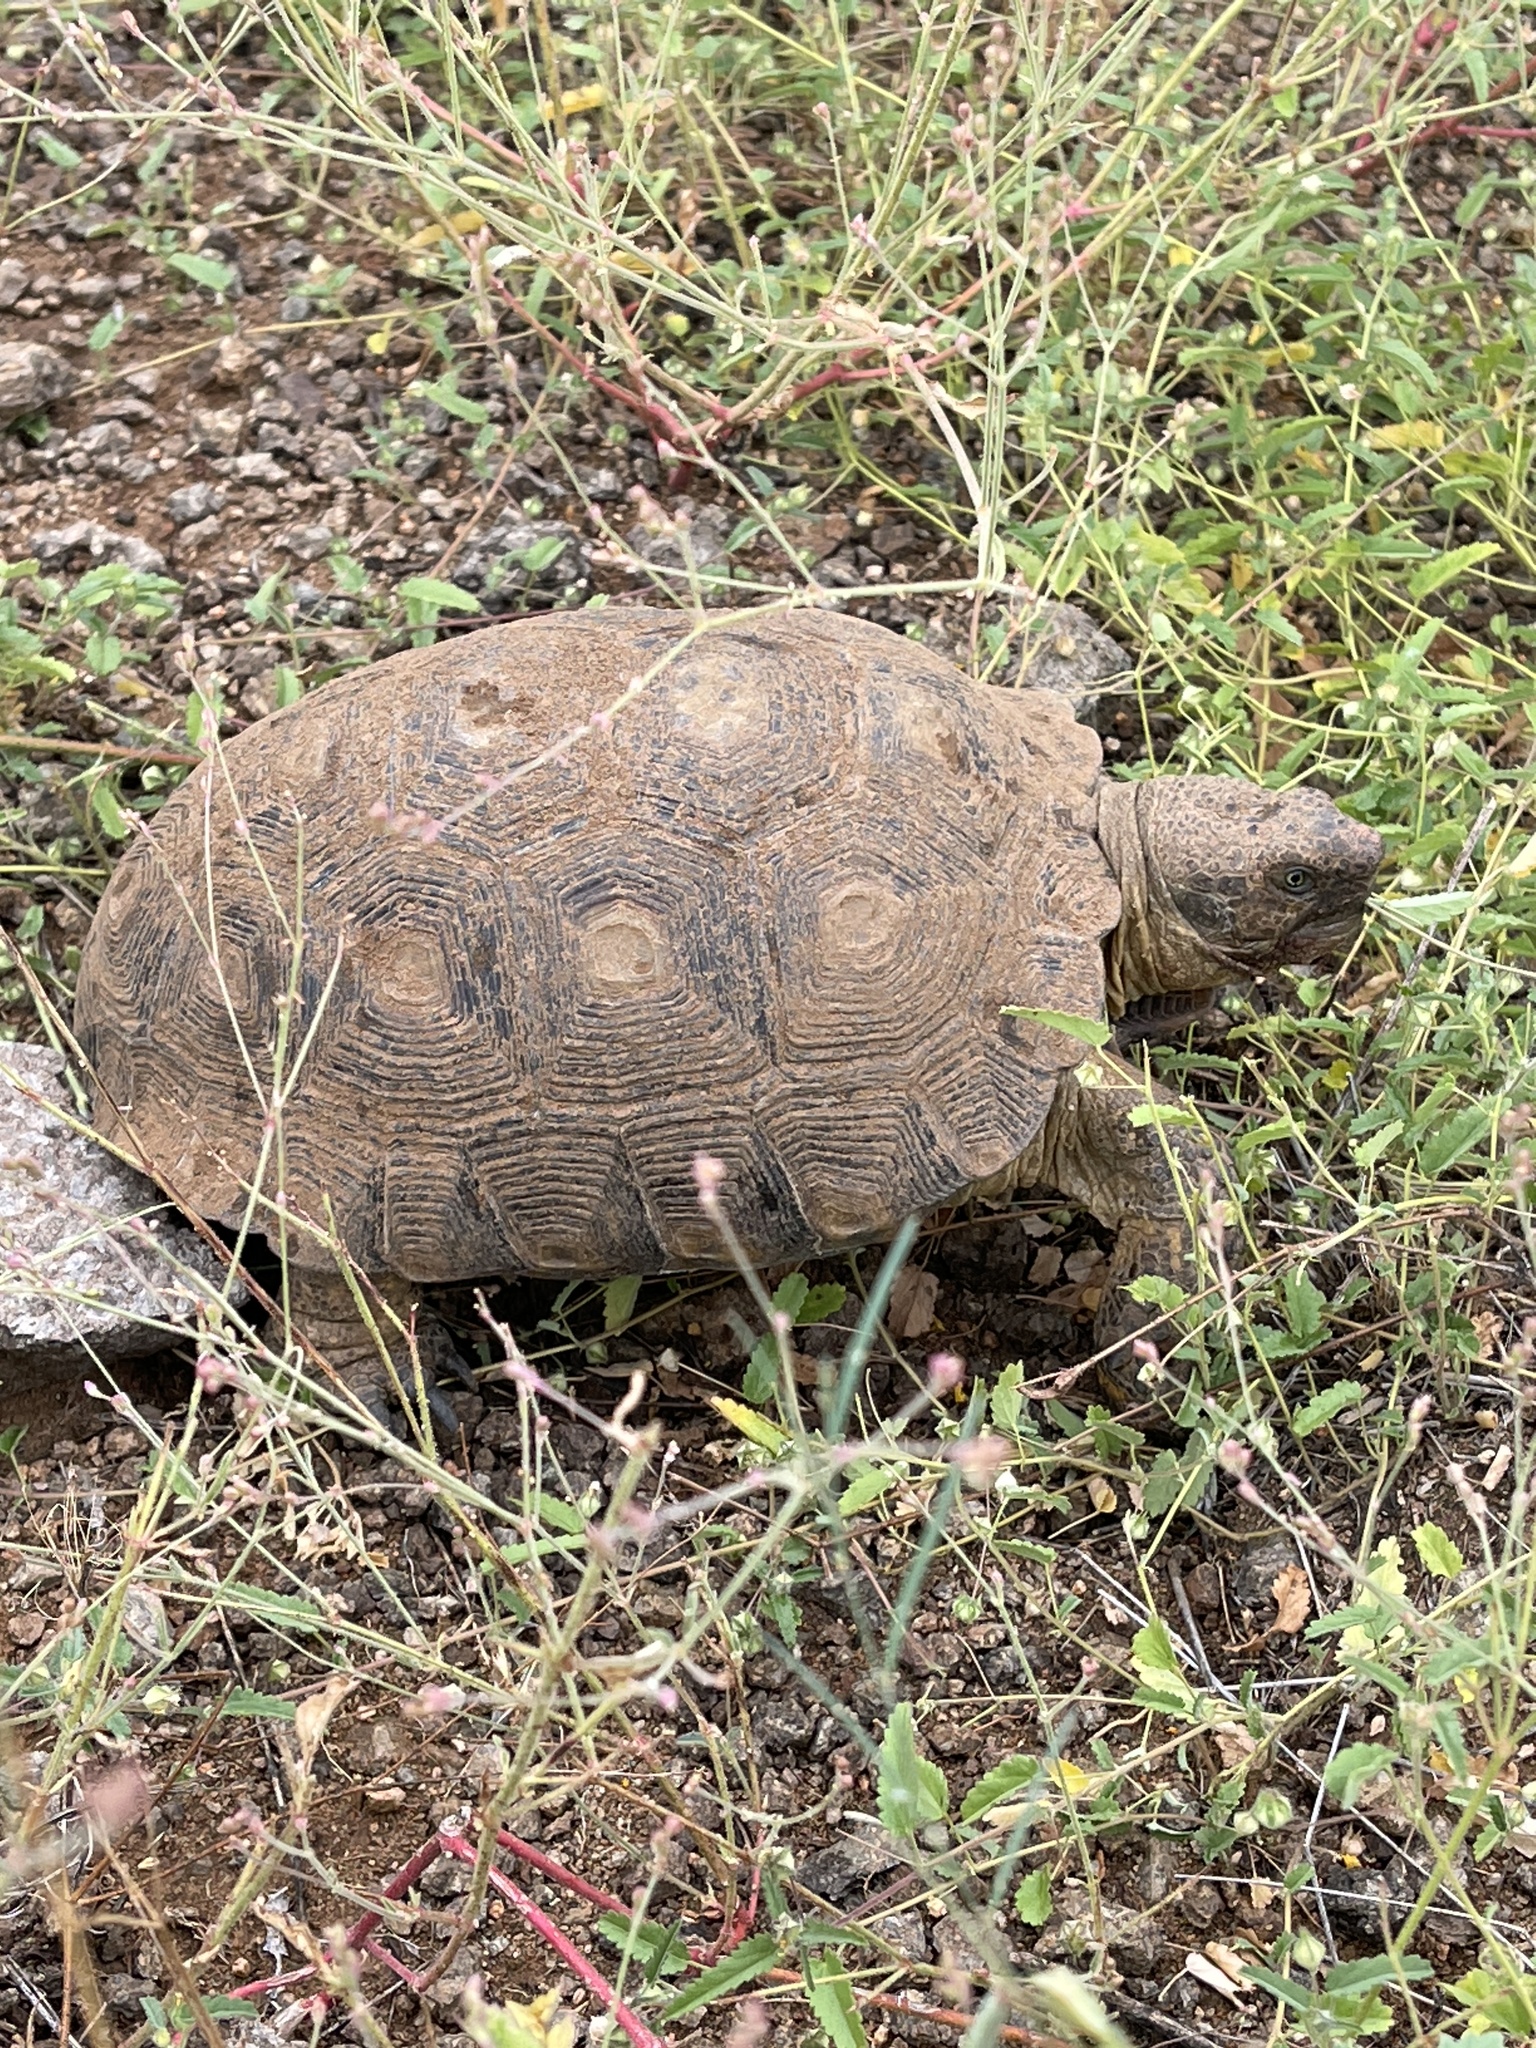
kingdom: Animalia
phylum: Chordata
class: Testudines
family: Testudinidae
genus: Gopherus
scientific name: Gopherus morafkai
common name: Sonoran desert tortoise
